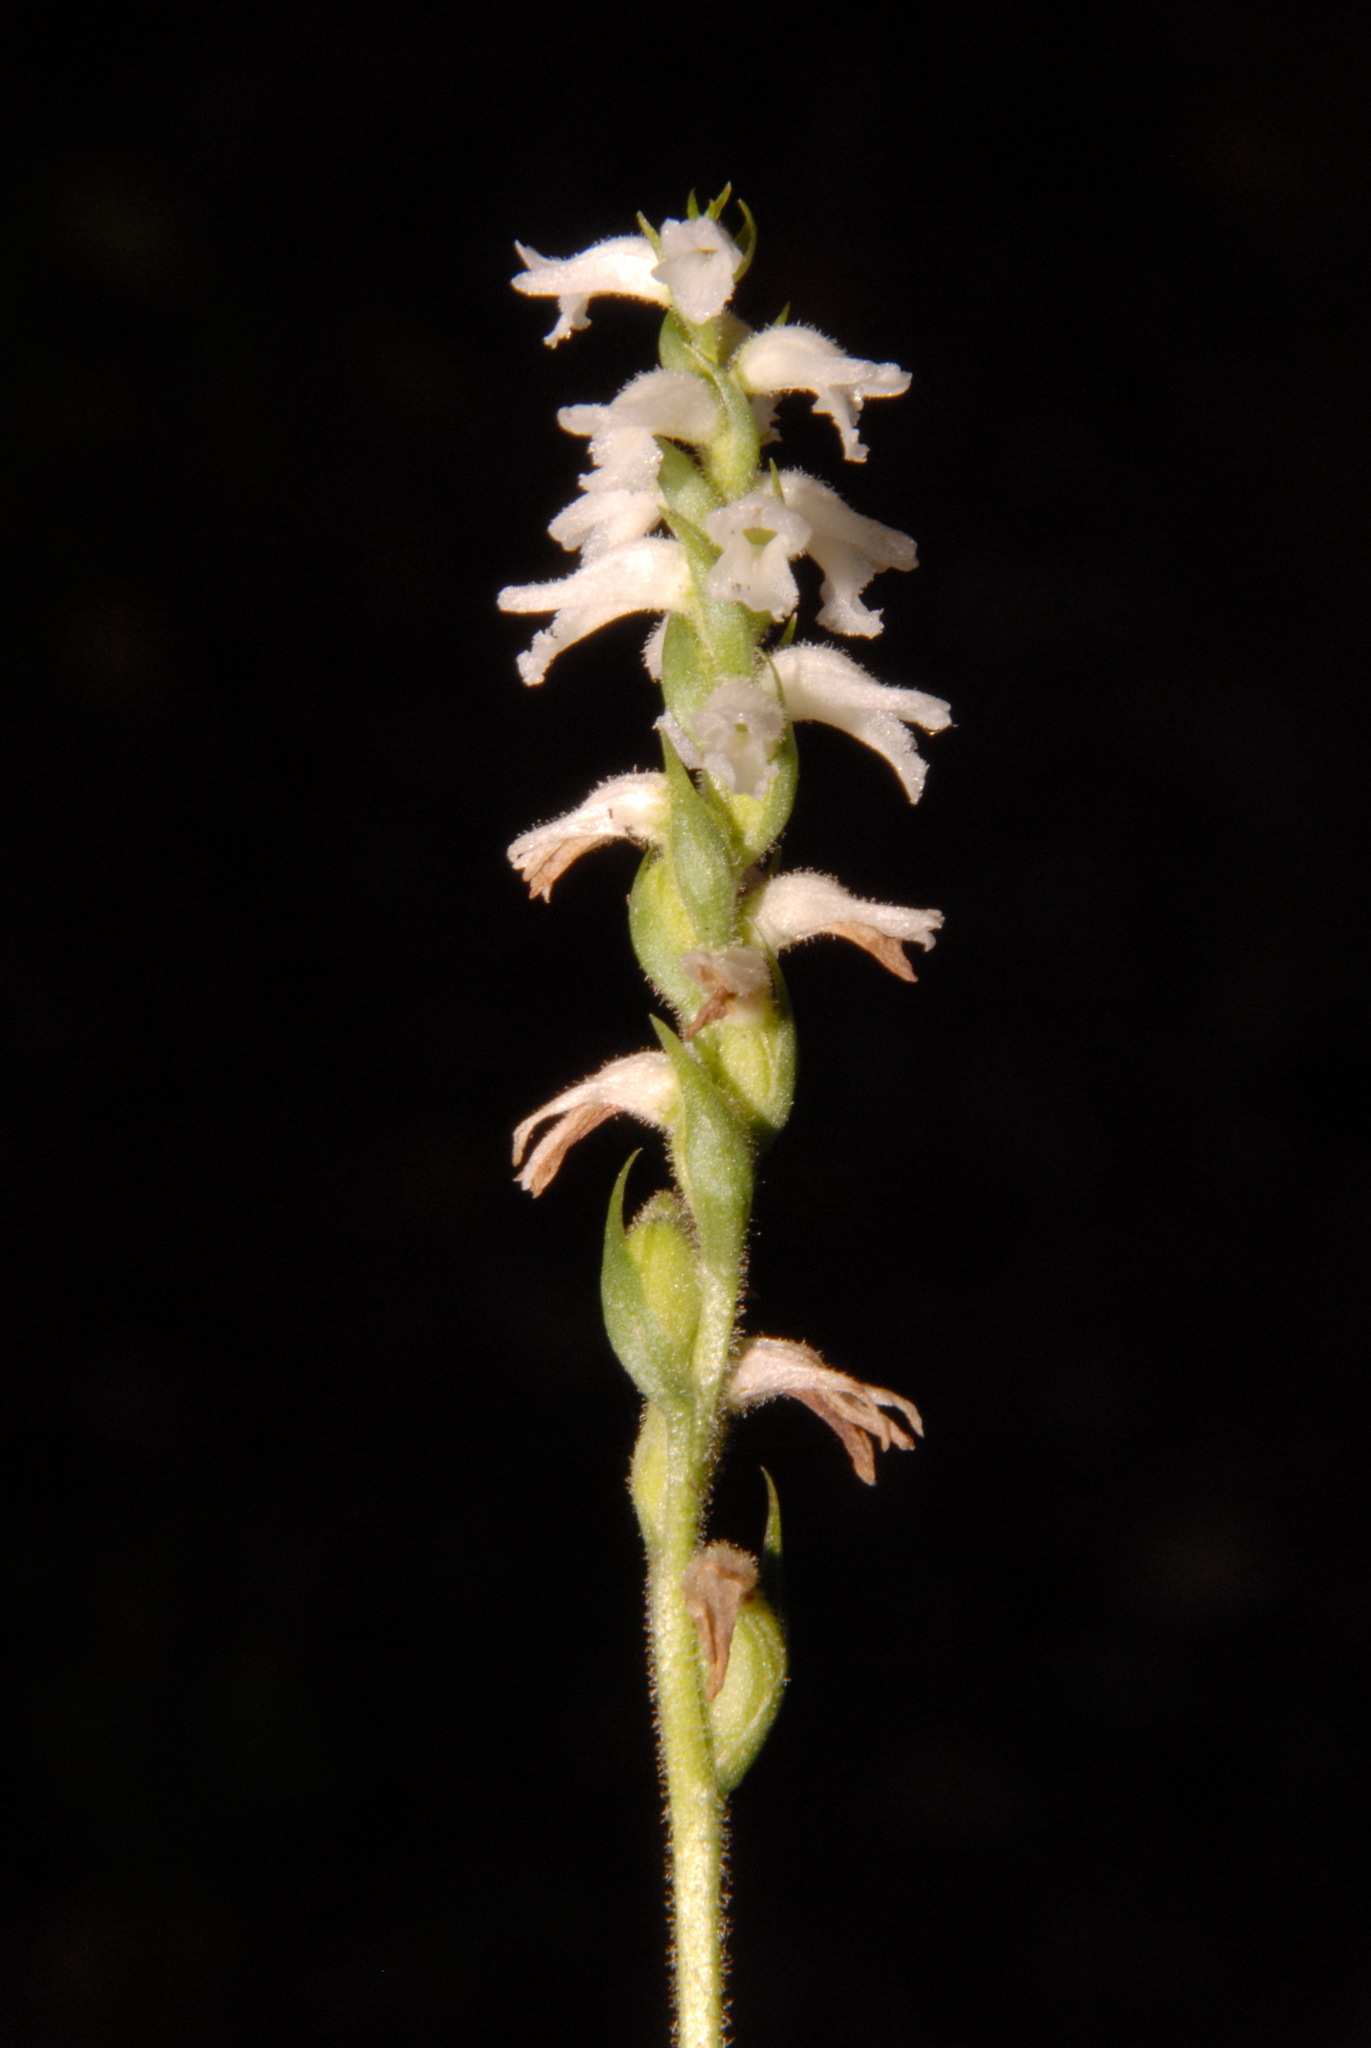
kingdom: Plantae
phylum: Tracheophyta
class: Liliopsida
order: Asparagales
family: Orchidaceae
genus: Spiranthes
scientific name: Spiranthes cernua
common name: Dropping ladies'-tresses
